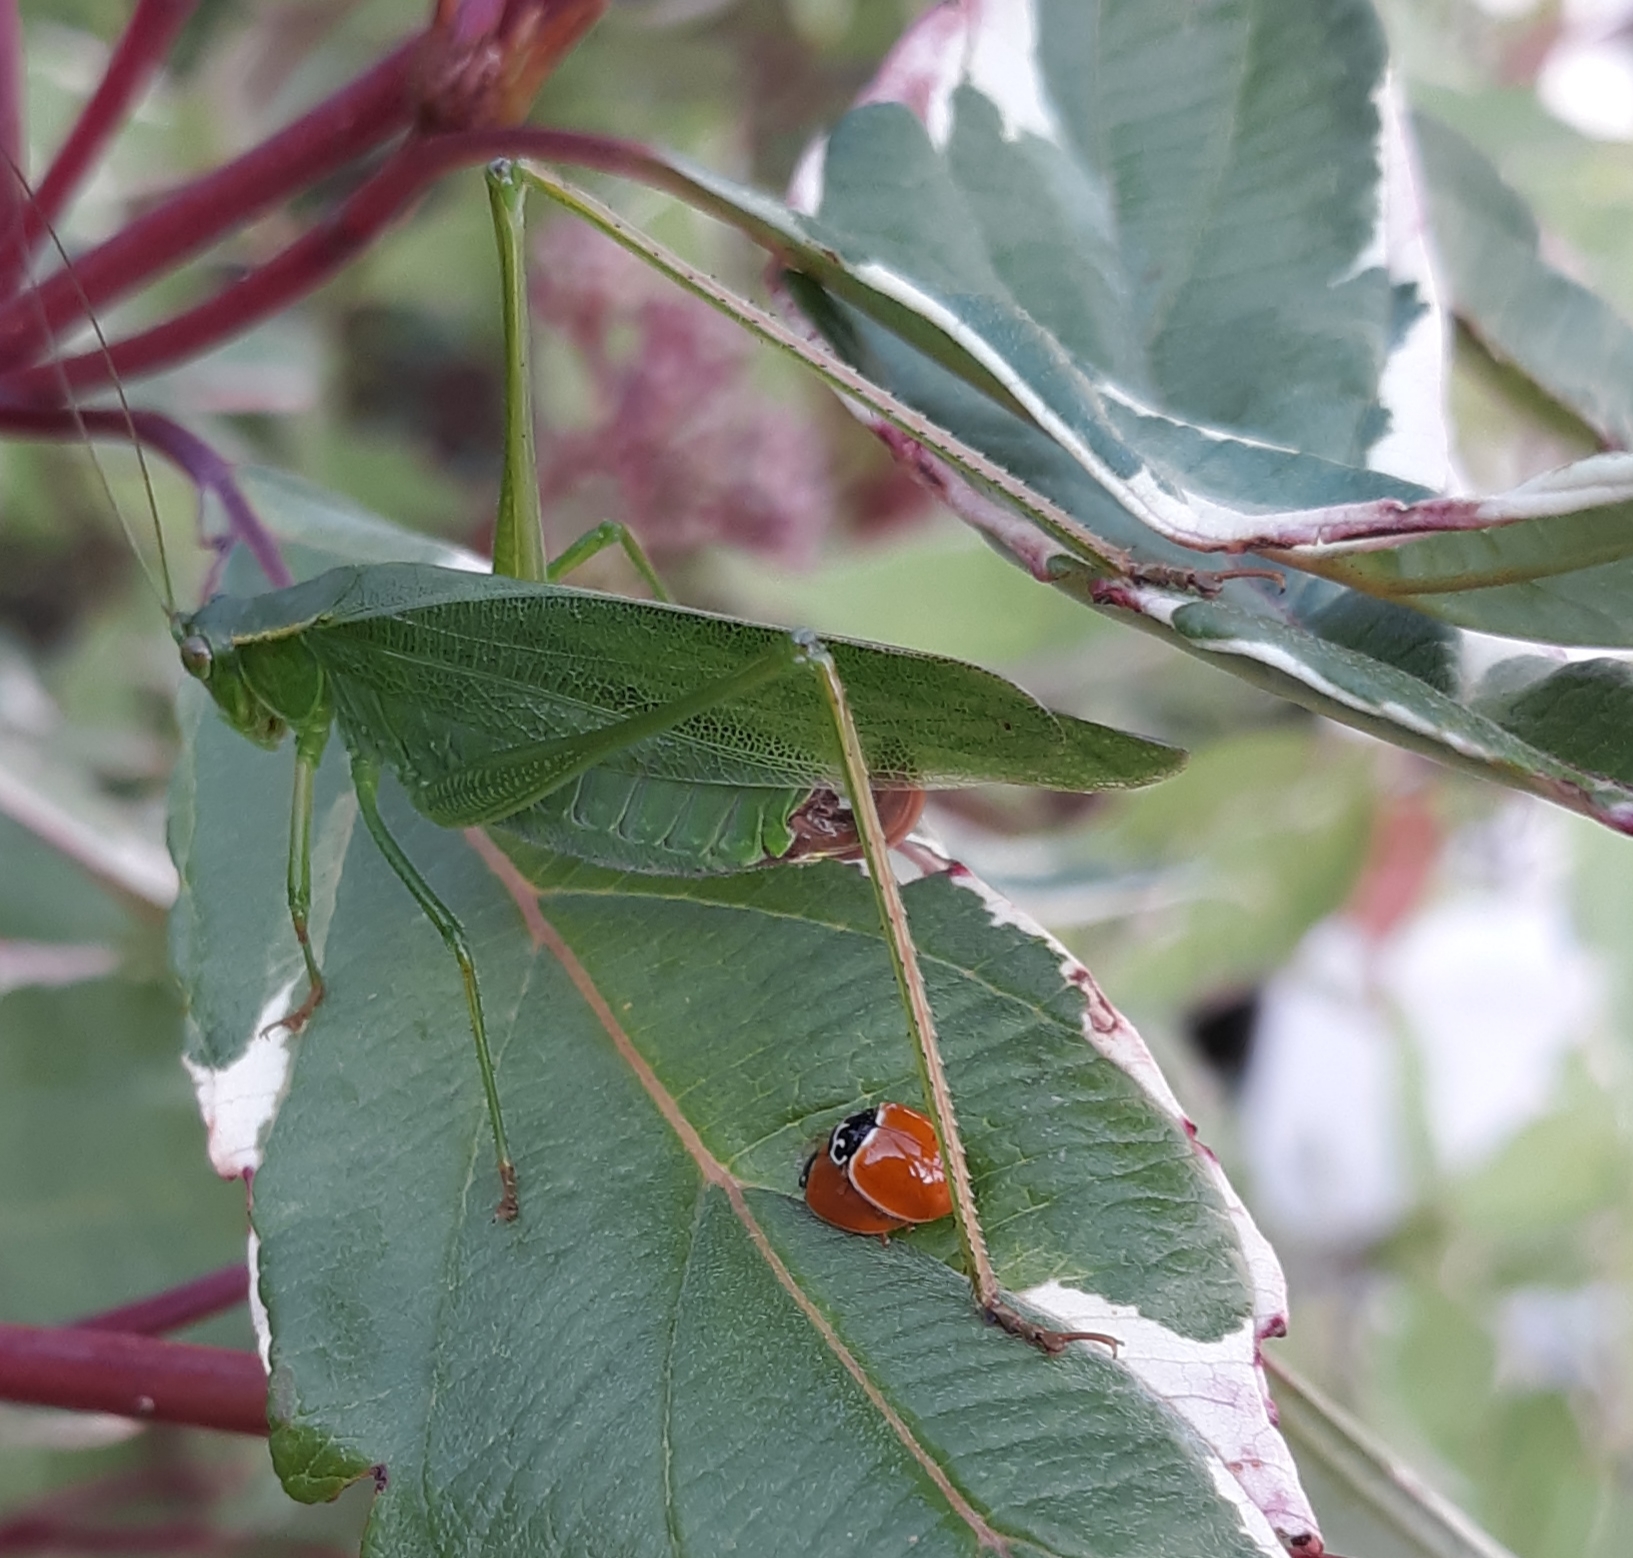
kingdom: Animalia
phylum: Arthropoda
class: Insecta
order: Orthoptera
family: Tettigoniidae
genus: Scudderia
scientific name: Scudderia furcata
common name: Fork-tailed bush katydid
